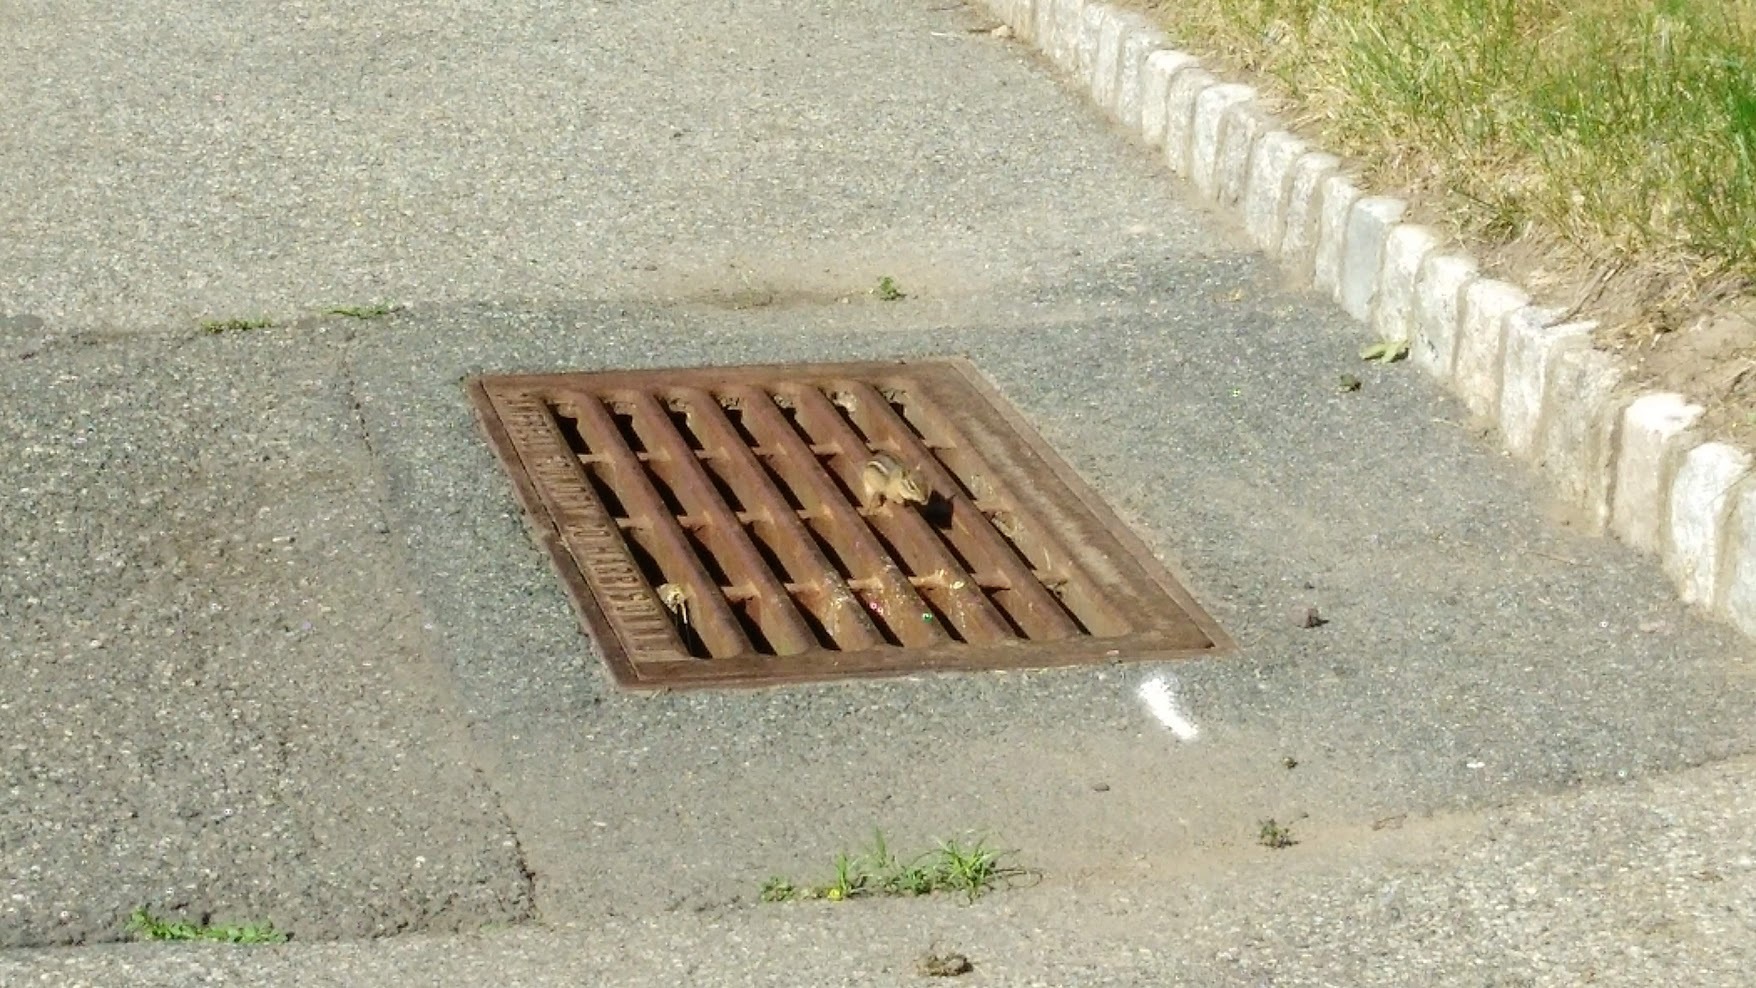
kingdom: Animalia
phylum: Chordata
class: Mammalia
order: Rodentia
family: Sciuridae
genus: Tamias
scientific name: Tamias striatus
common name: Eastern chipmunk
